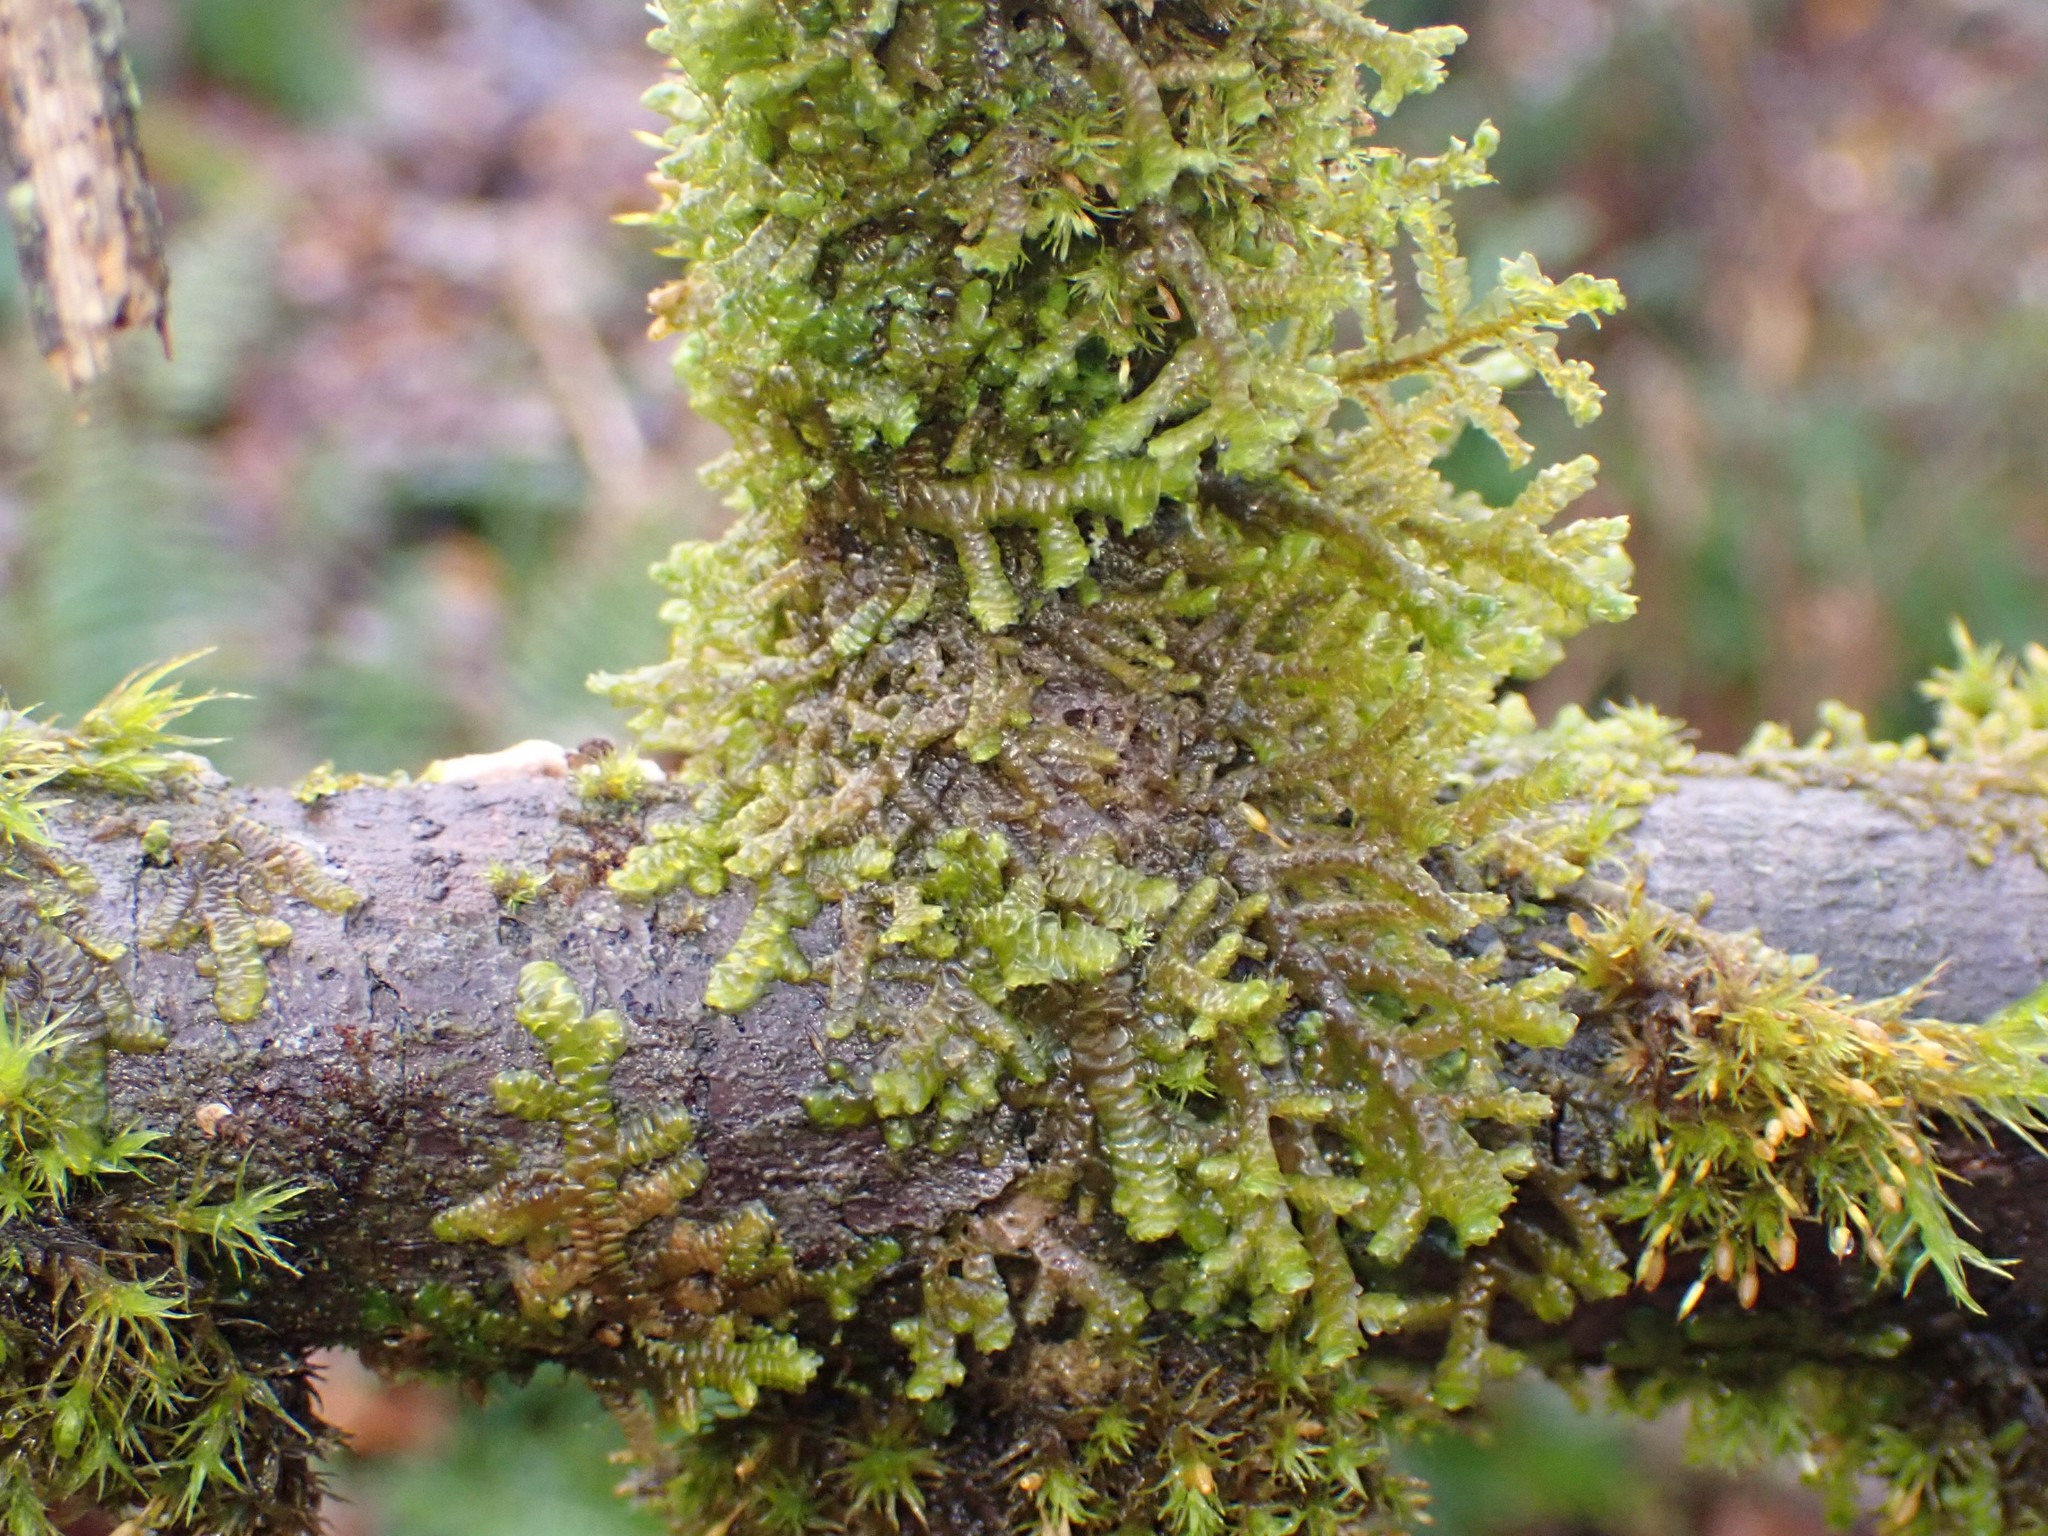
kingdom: Plantae
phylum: Marchantiophyta
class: Jungermanniopsida
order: Porellales
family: Porellaceae
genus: Porella
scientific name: Porella navicularis
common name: Tree ruffle liverwort
